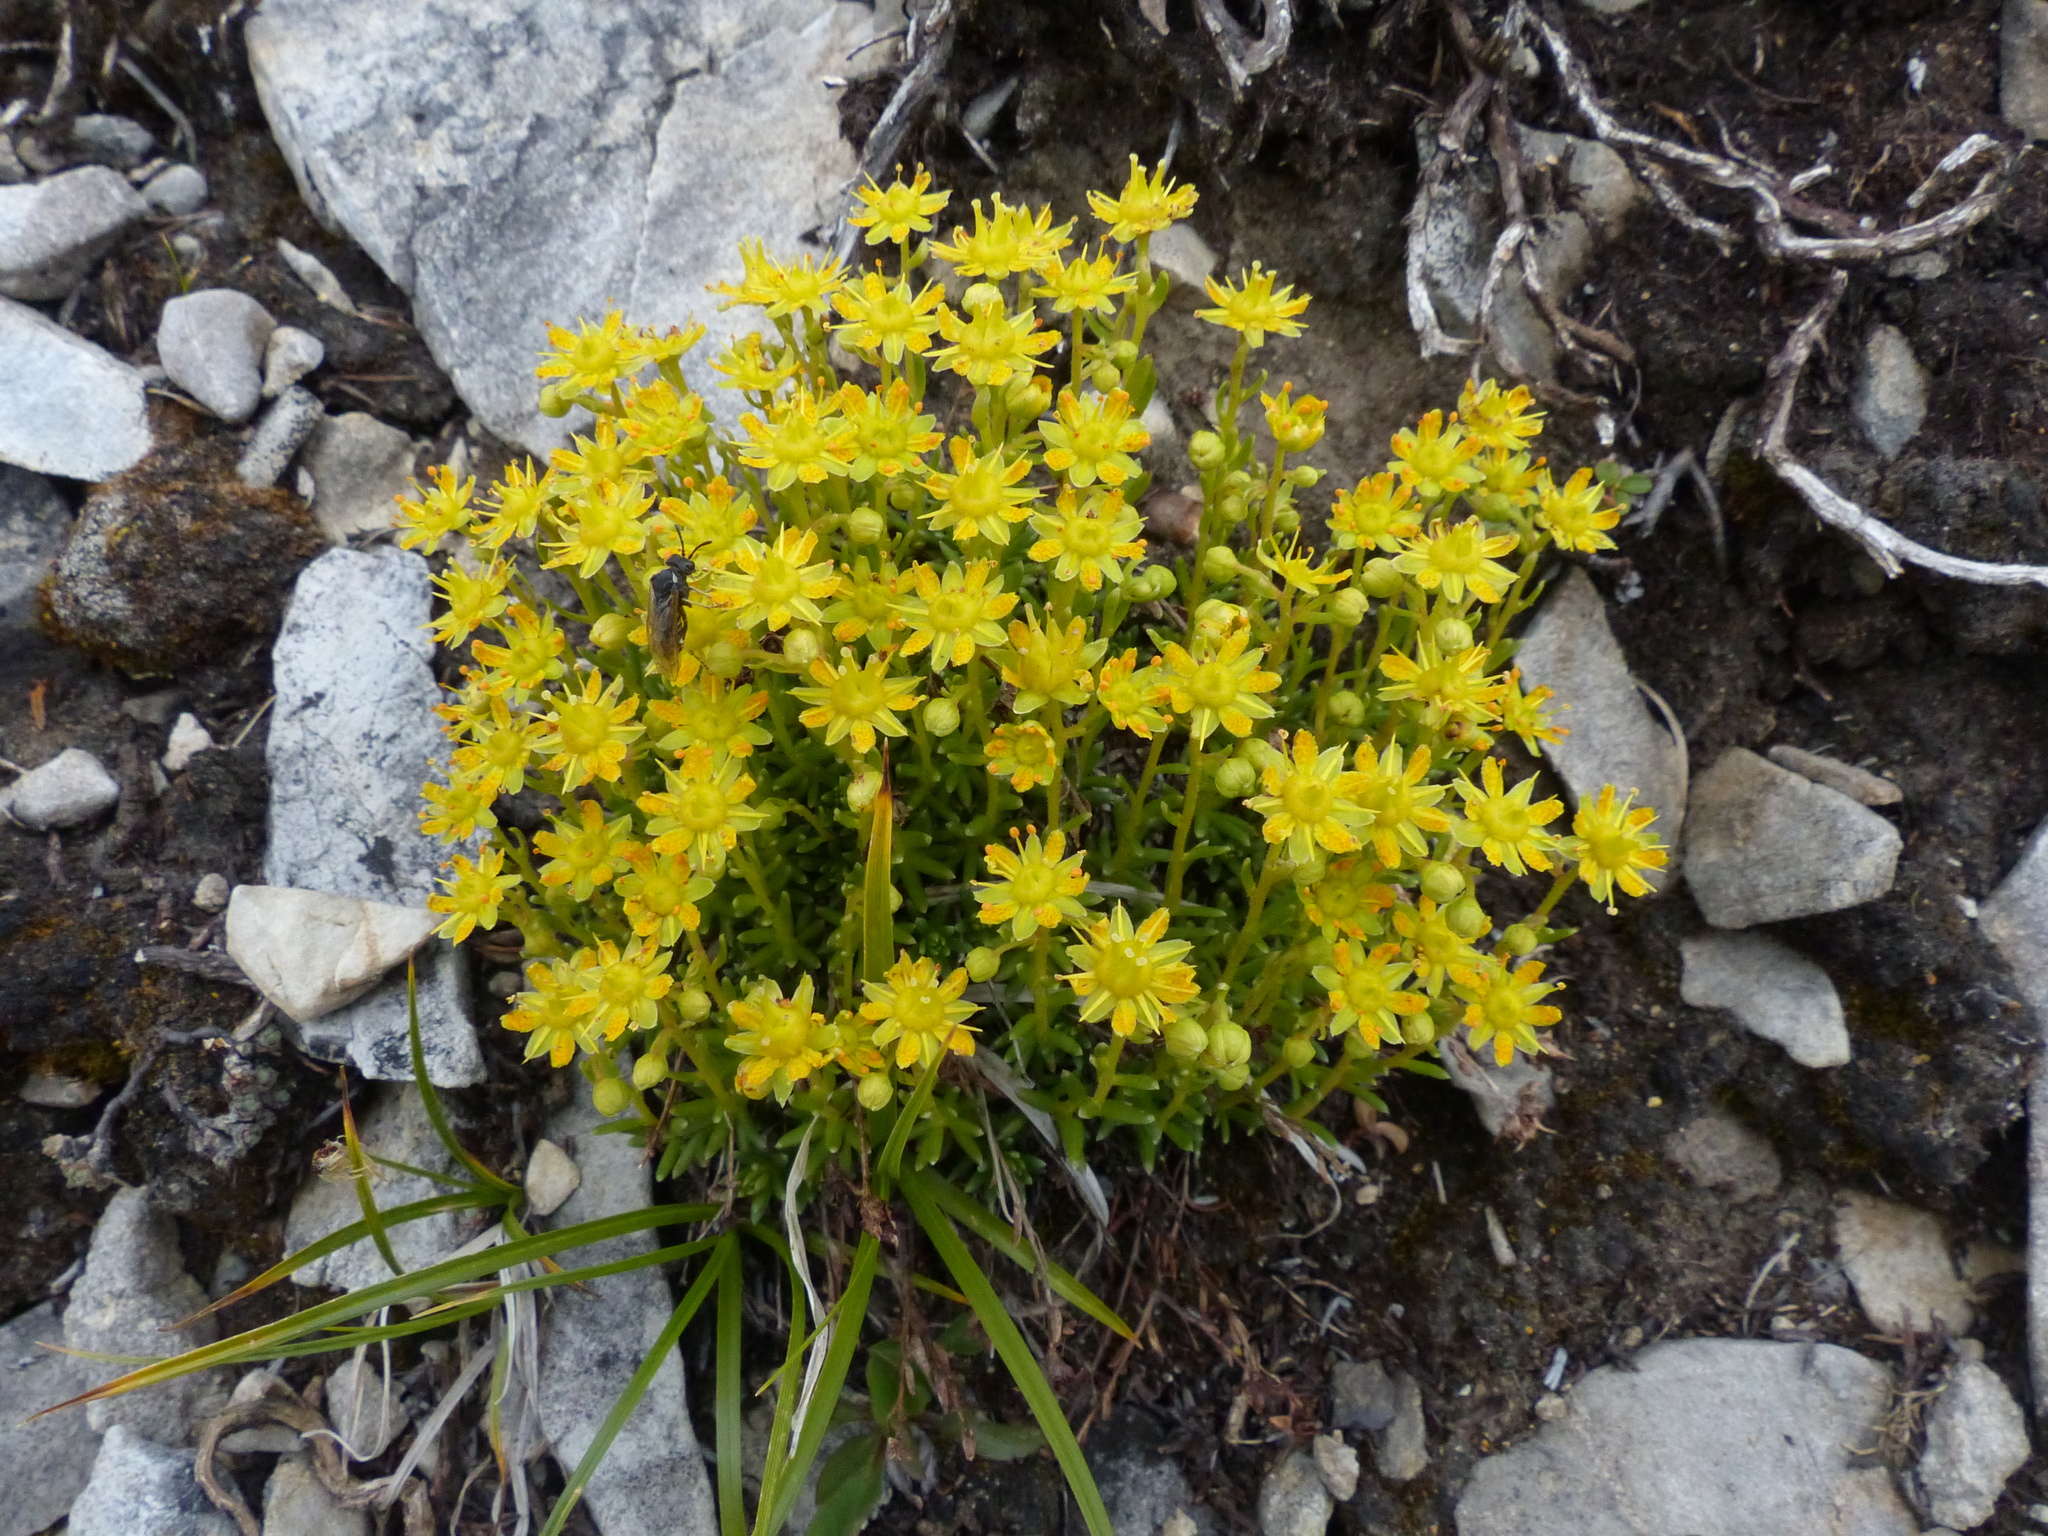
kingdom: Plantae
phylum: Tracheophyta
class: Magnoliopsida
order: Saxifragales
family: Saxifragaceae
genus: Saxifraga
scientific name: Saxifraga aizoides
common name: Yellow mountain saxifrage
